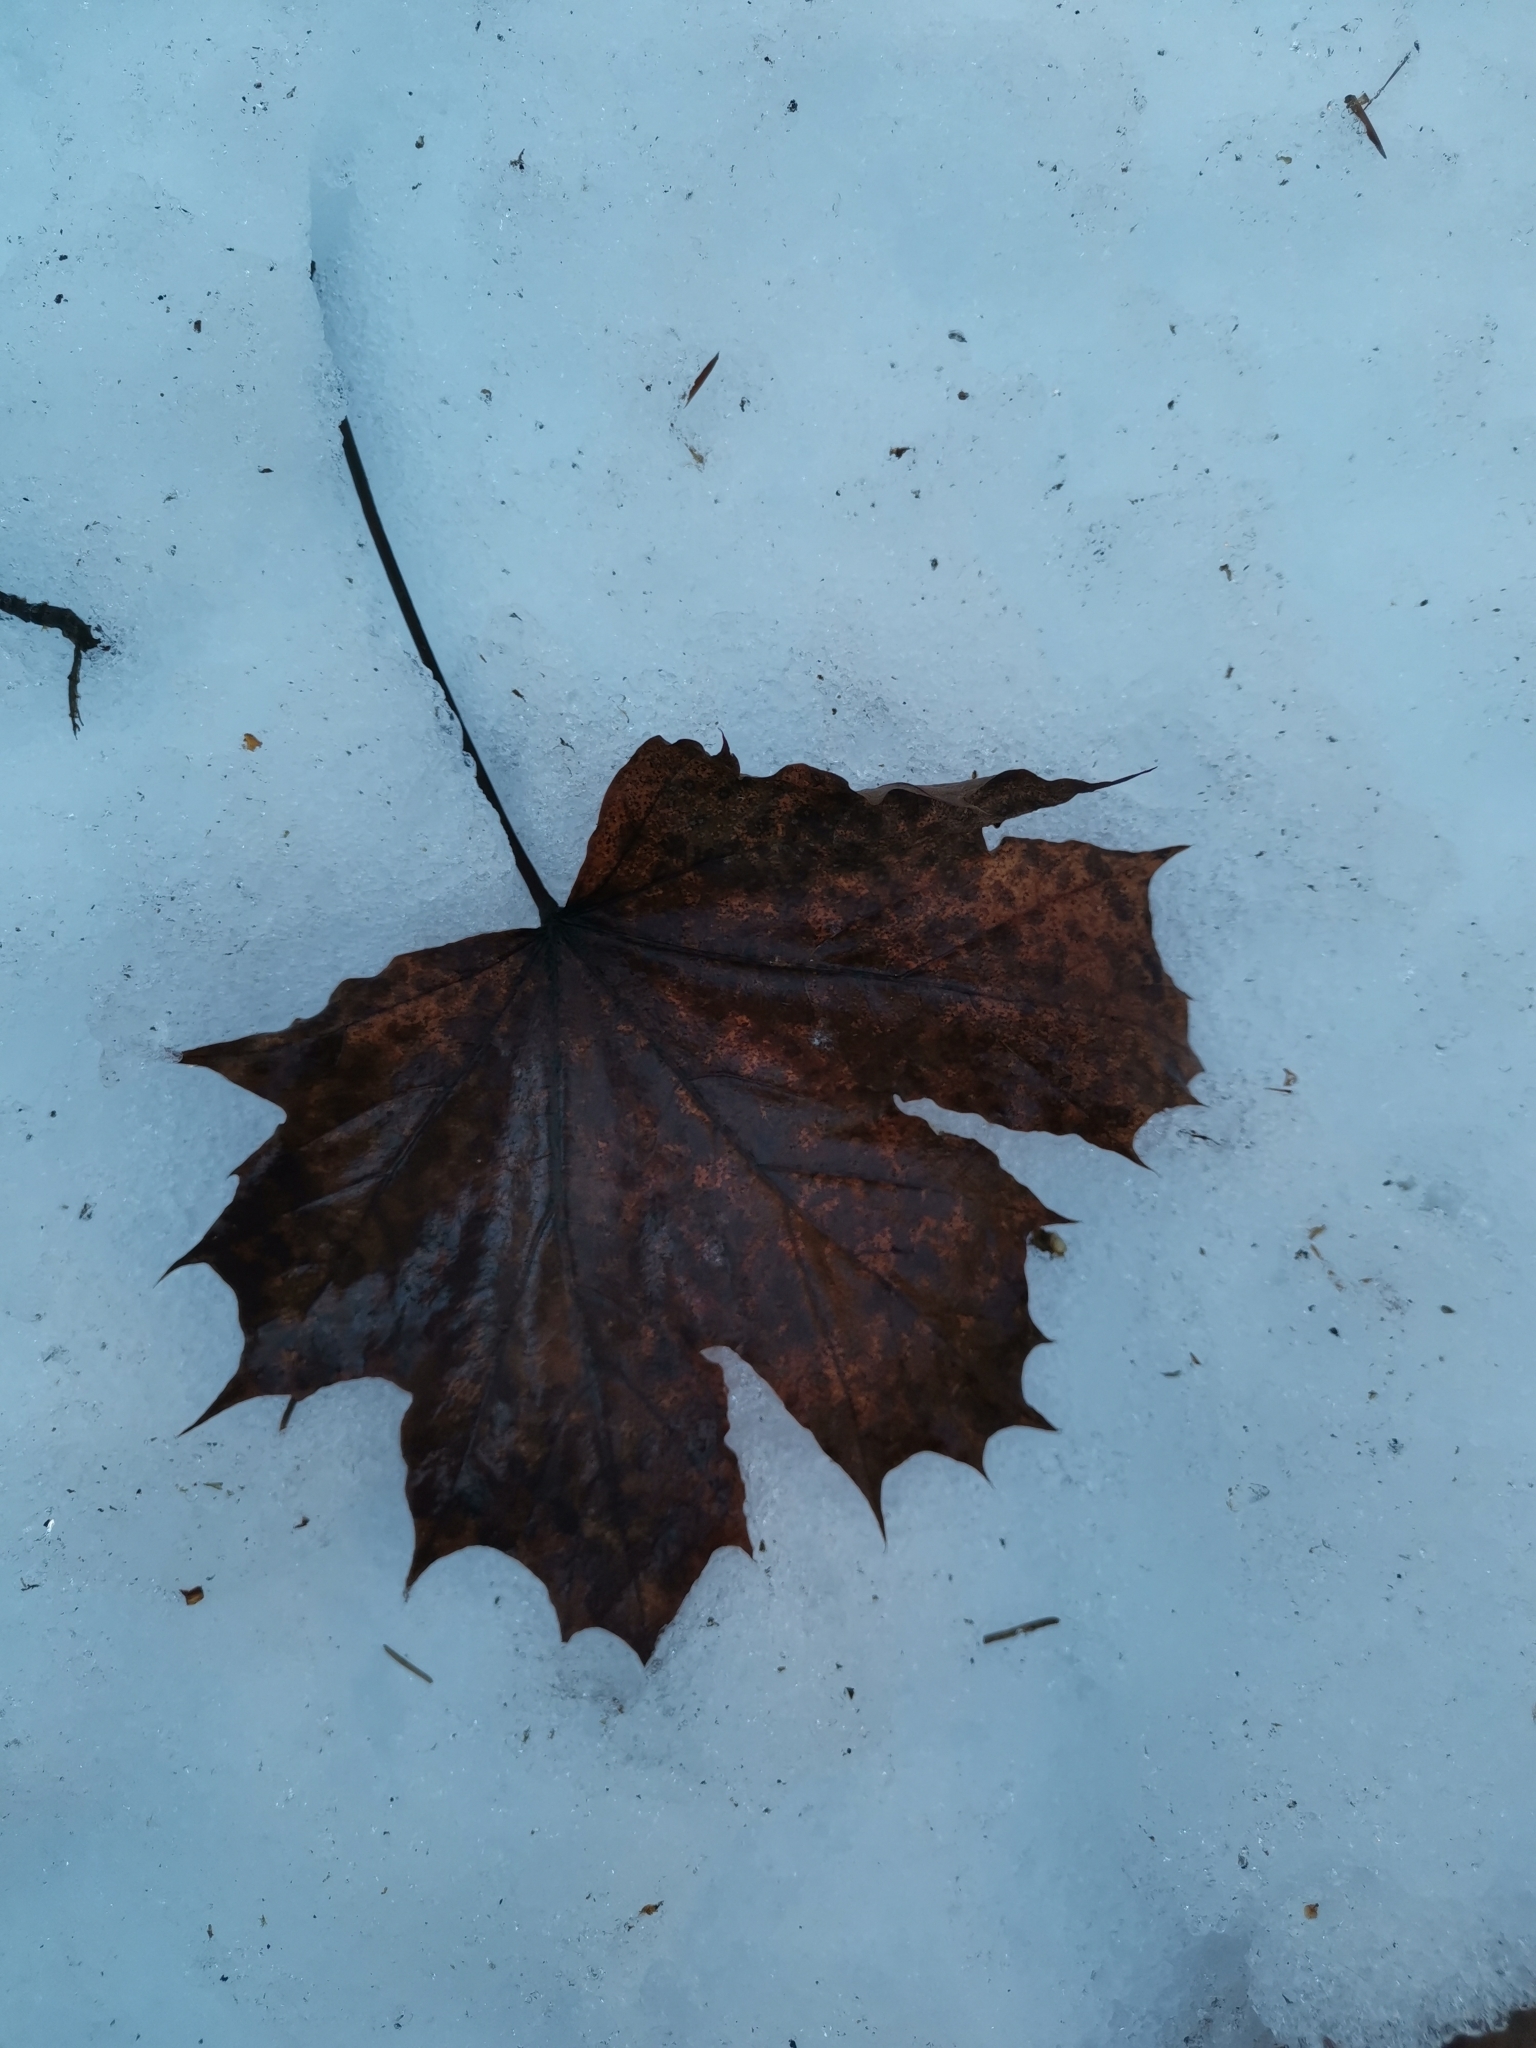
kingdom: Plantae
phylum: Tracheophyta
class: Magnoliopsida
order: Sapindales
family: Sapindaceae
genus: Acer
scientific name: Acer platanoides
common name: Norway maple
